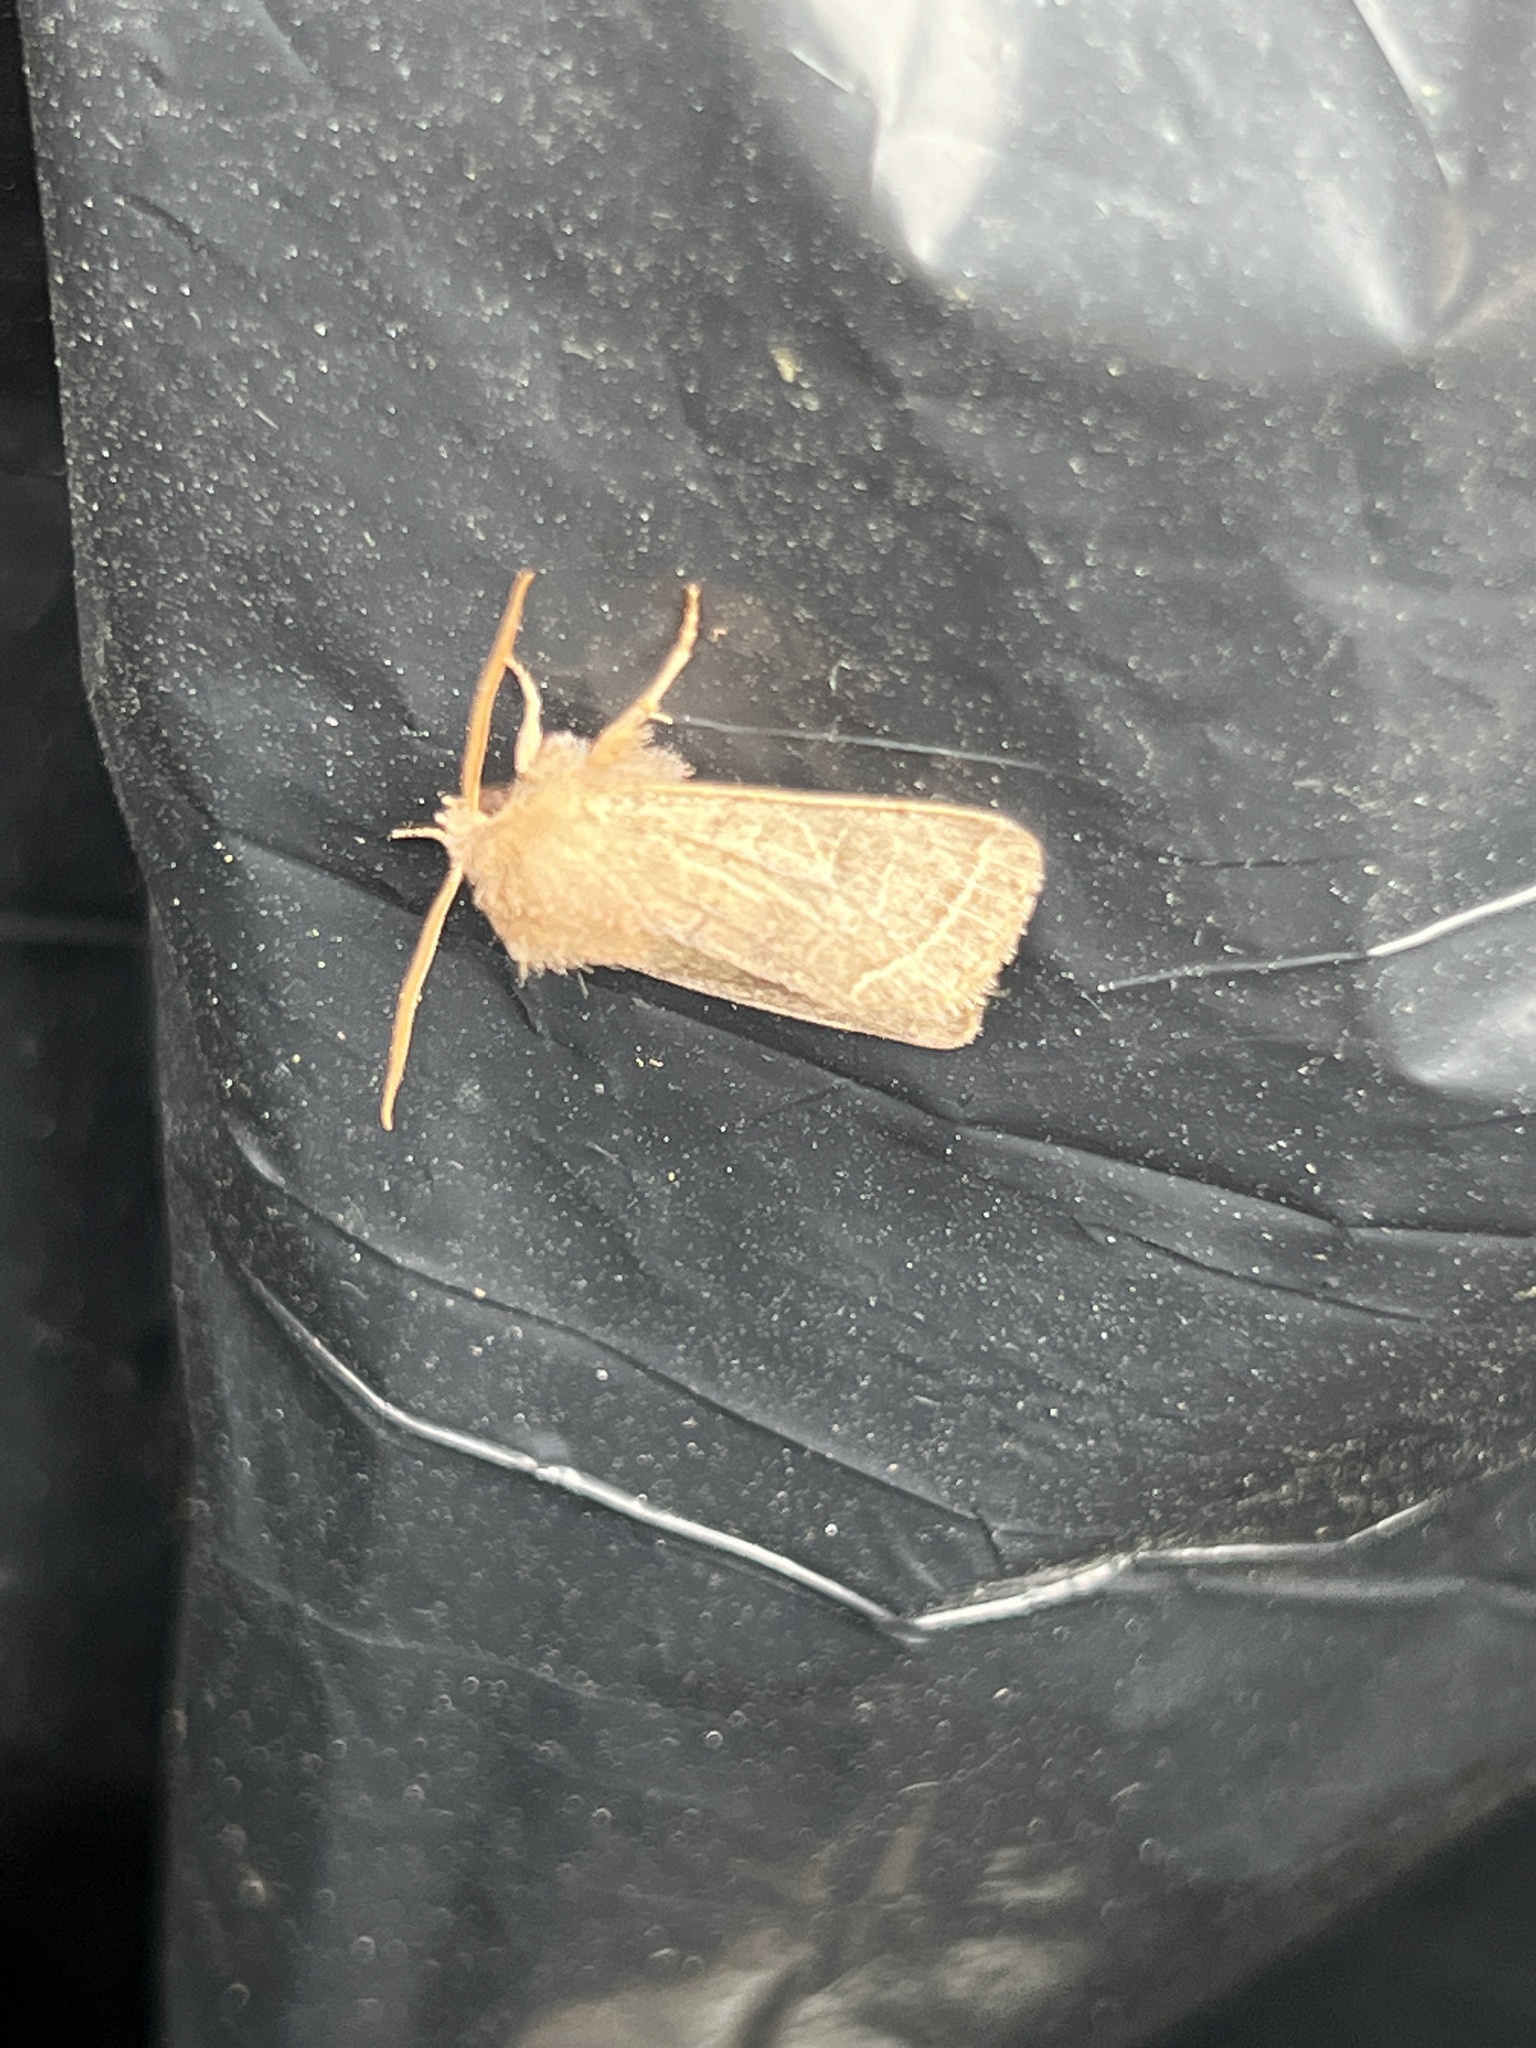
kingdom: Animalia
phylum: Arthropoda
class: Insecta
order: Lepidoptera
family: Noctuidae
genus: Orthosia
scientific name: Orthosia cerasi
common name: Common quaker
